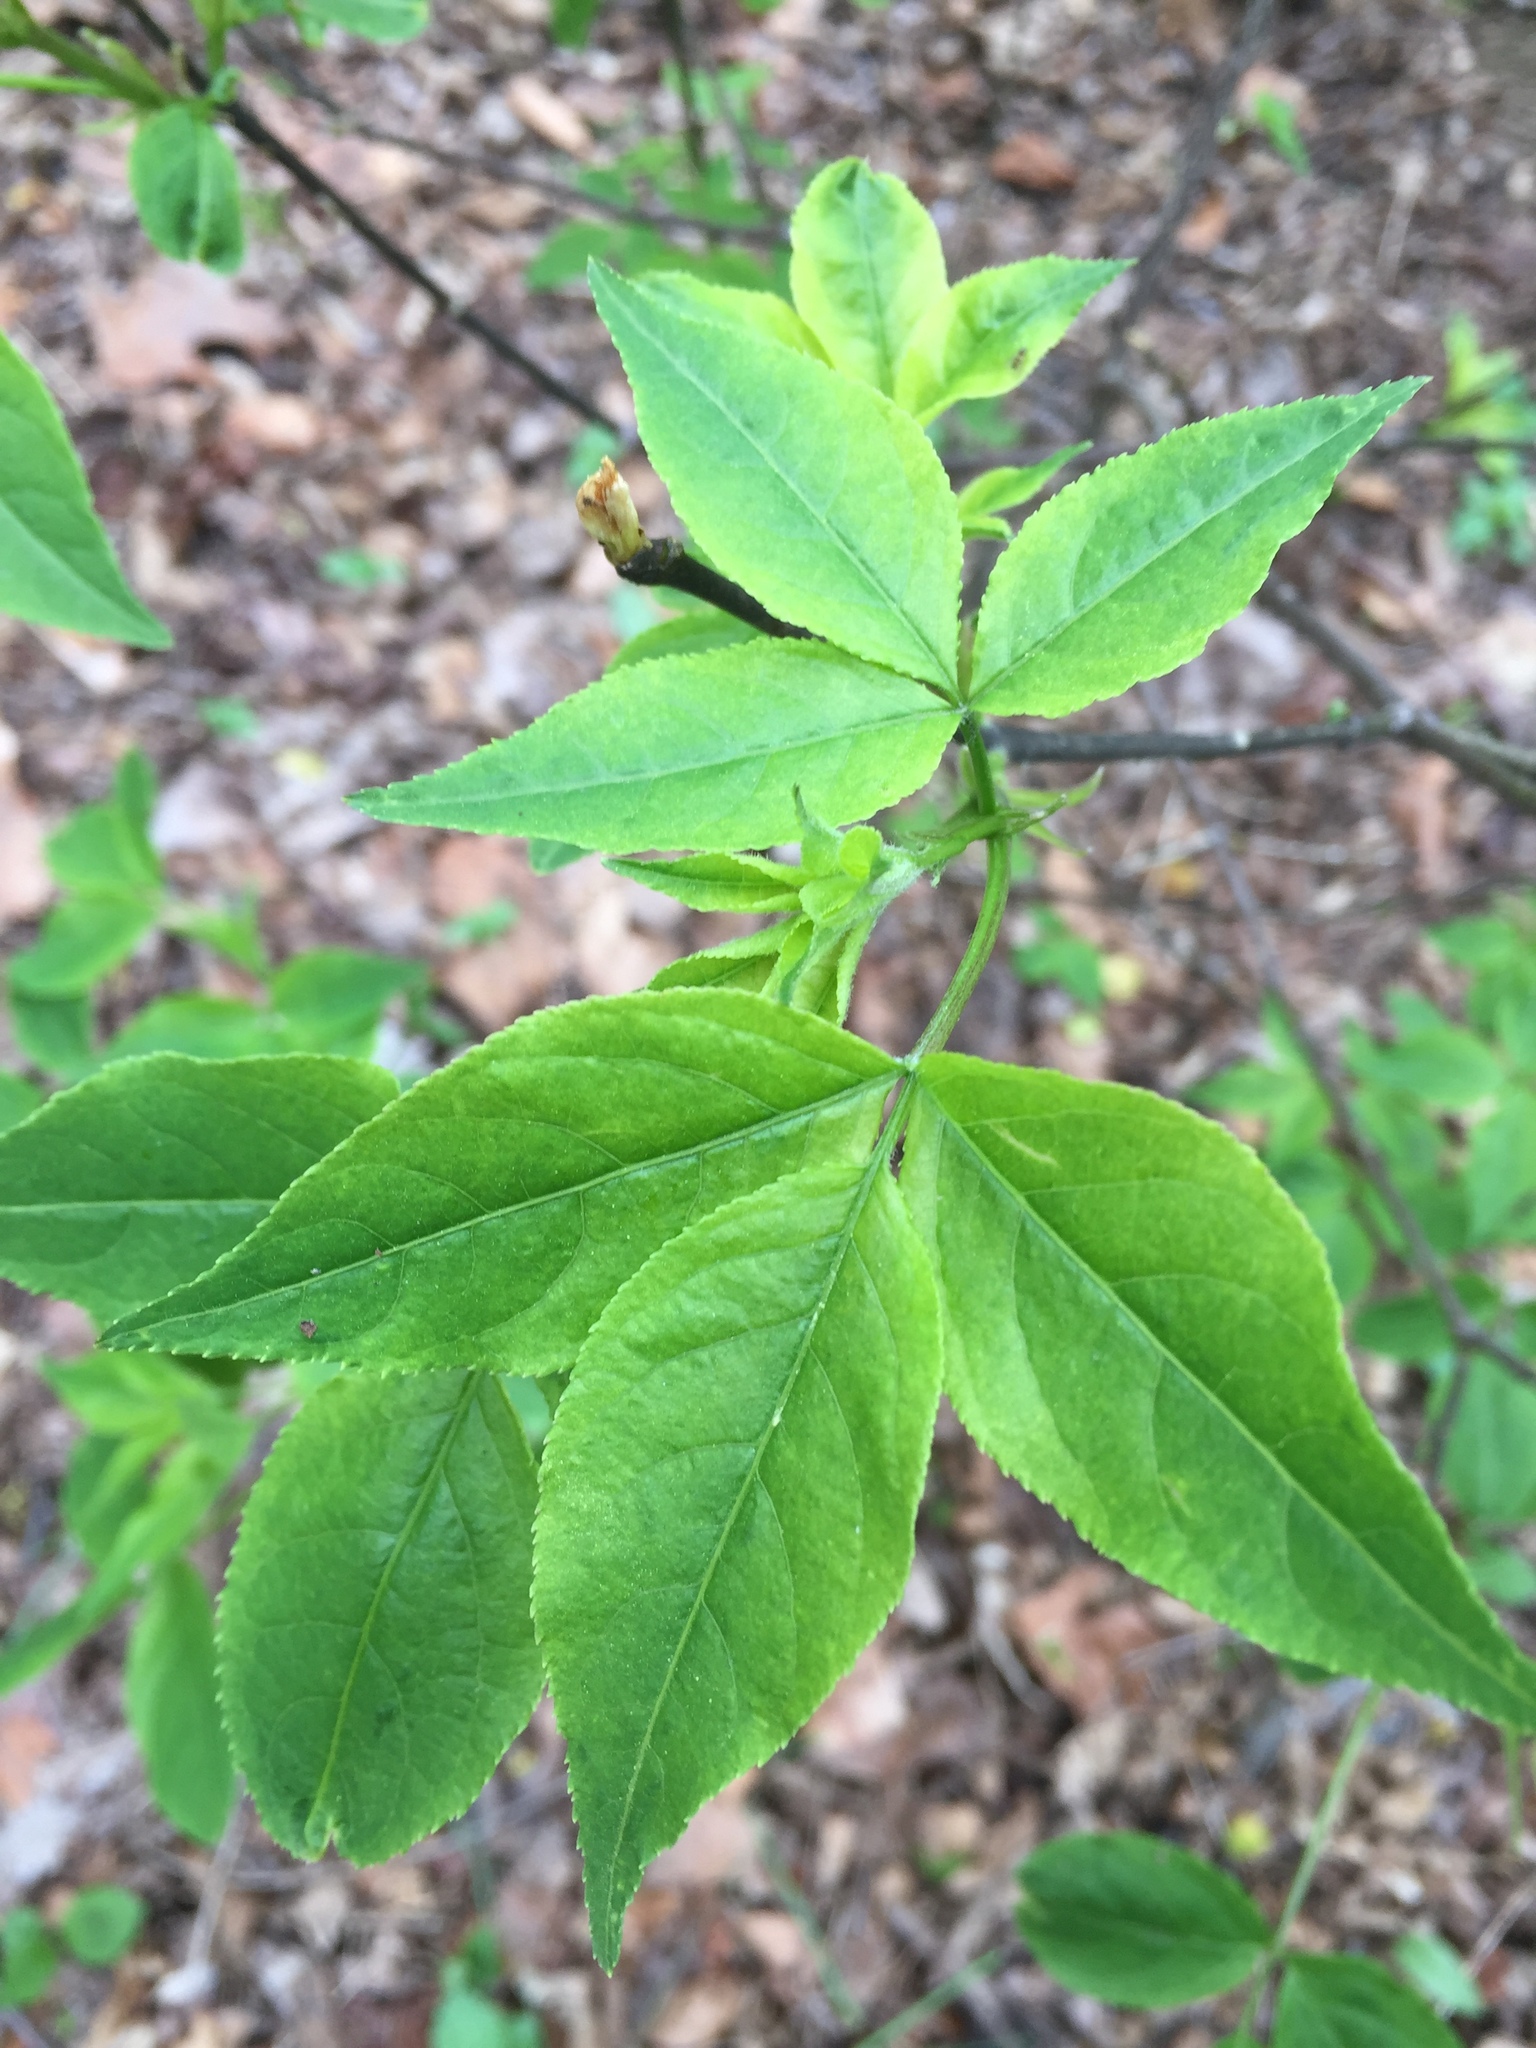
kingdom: Plantae
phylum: Tracheophyta
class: Magnoliopsida
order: Crossosomatales
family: Staphyleaceae
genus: Staphylea
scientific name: Staphylea trifolia
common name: American bladdernut
